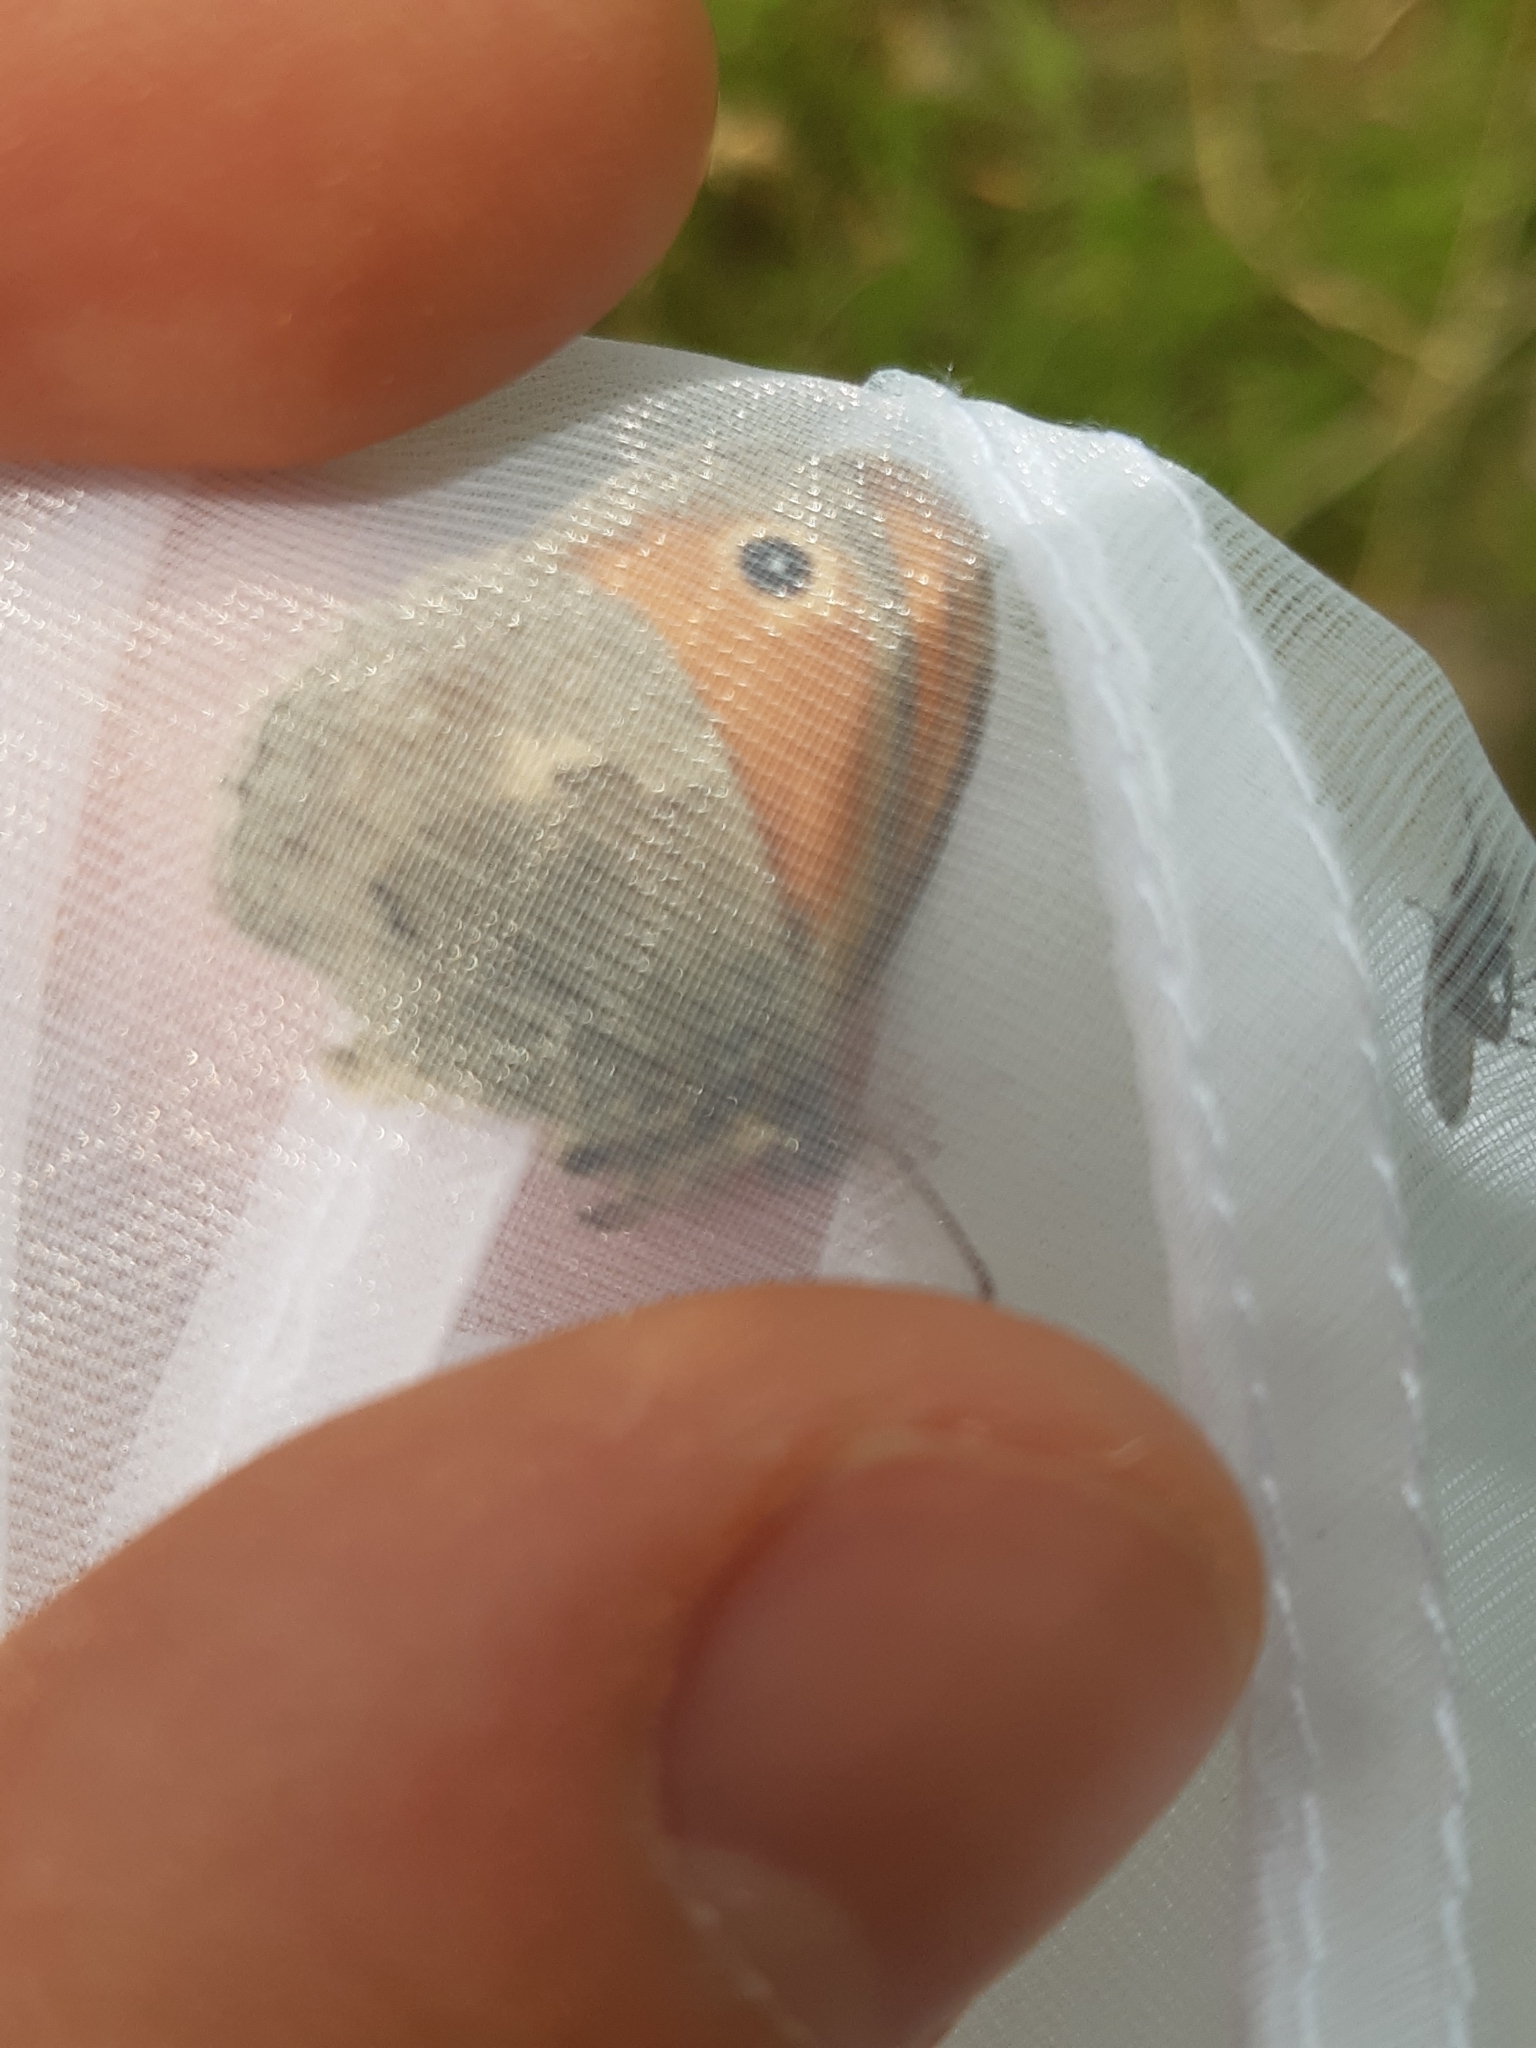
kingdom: Animalia
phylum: Arthropoda
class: Insecta
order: Lepidoptera
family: Nymphalidae
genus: Coenonympha
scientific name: Coenonympha pamphilus
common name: Small heath
